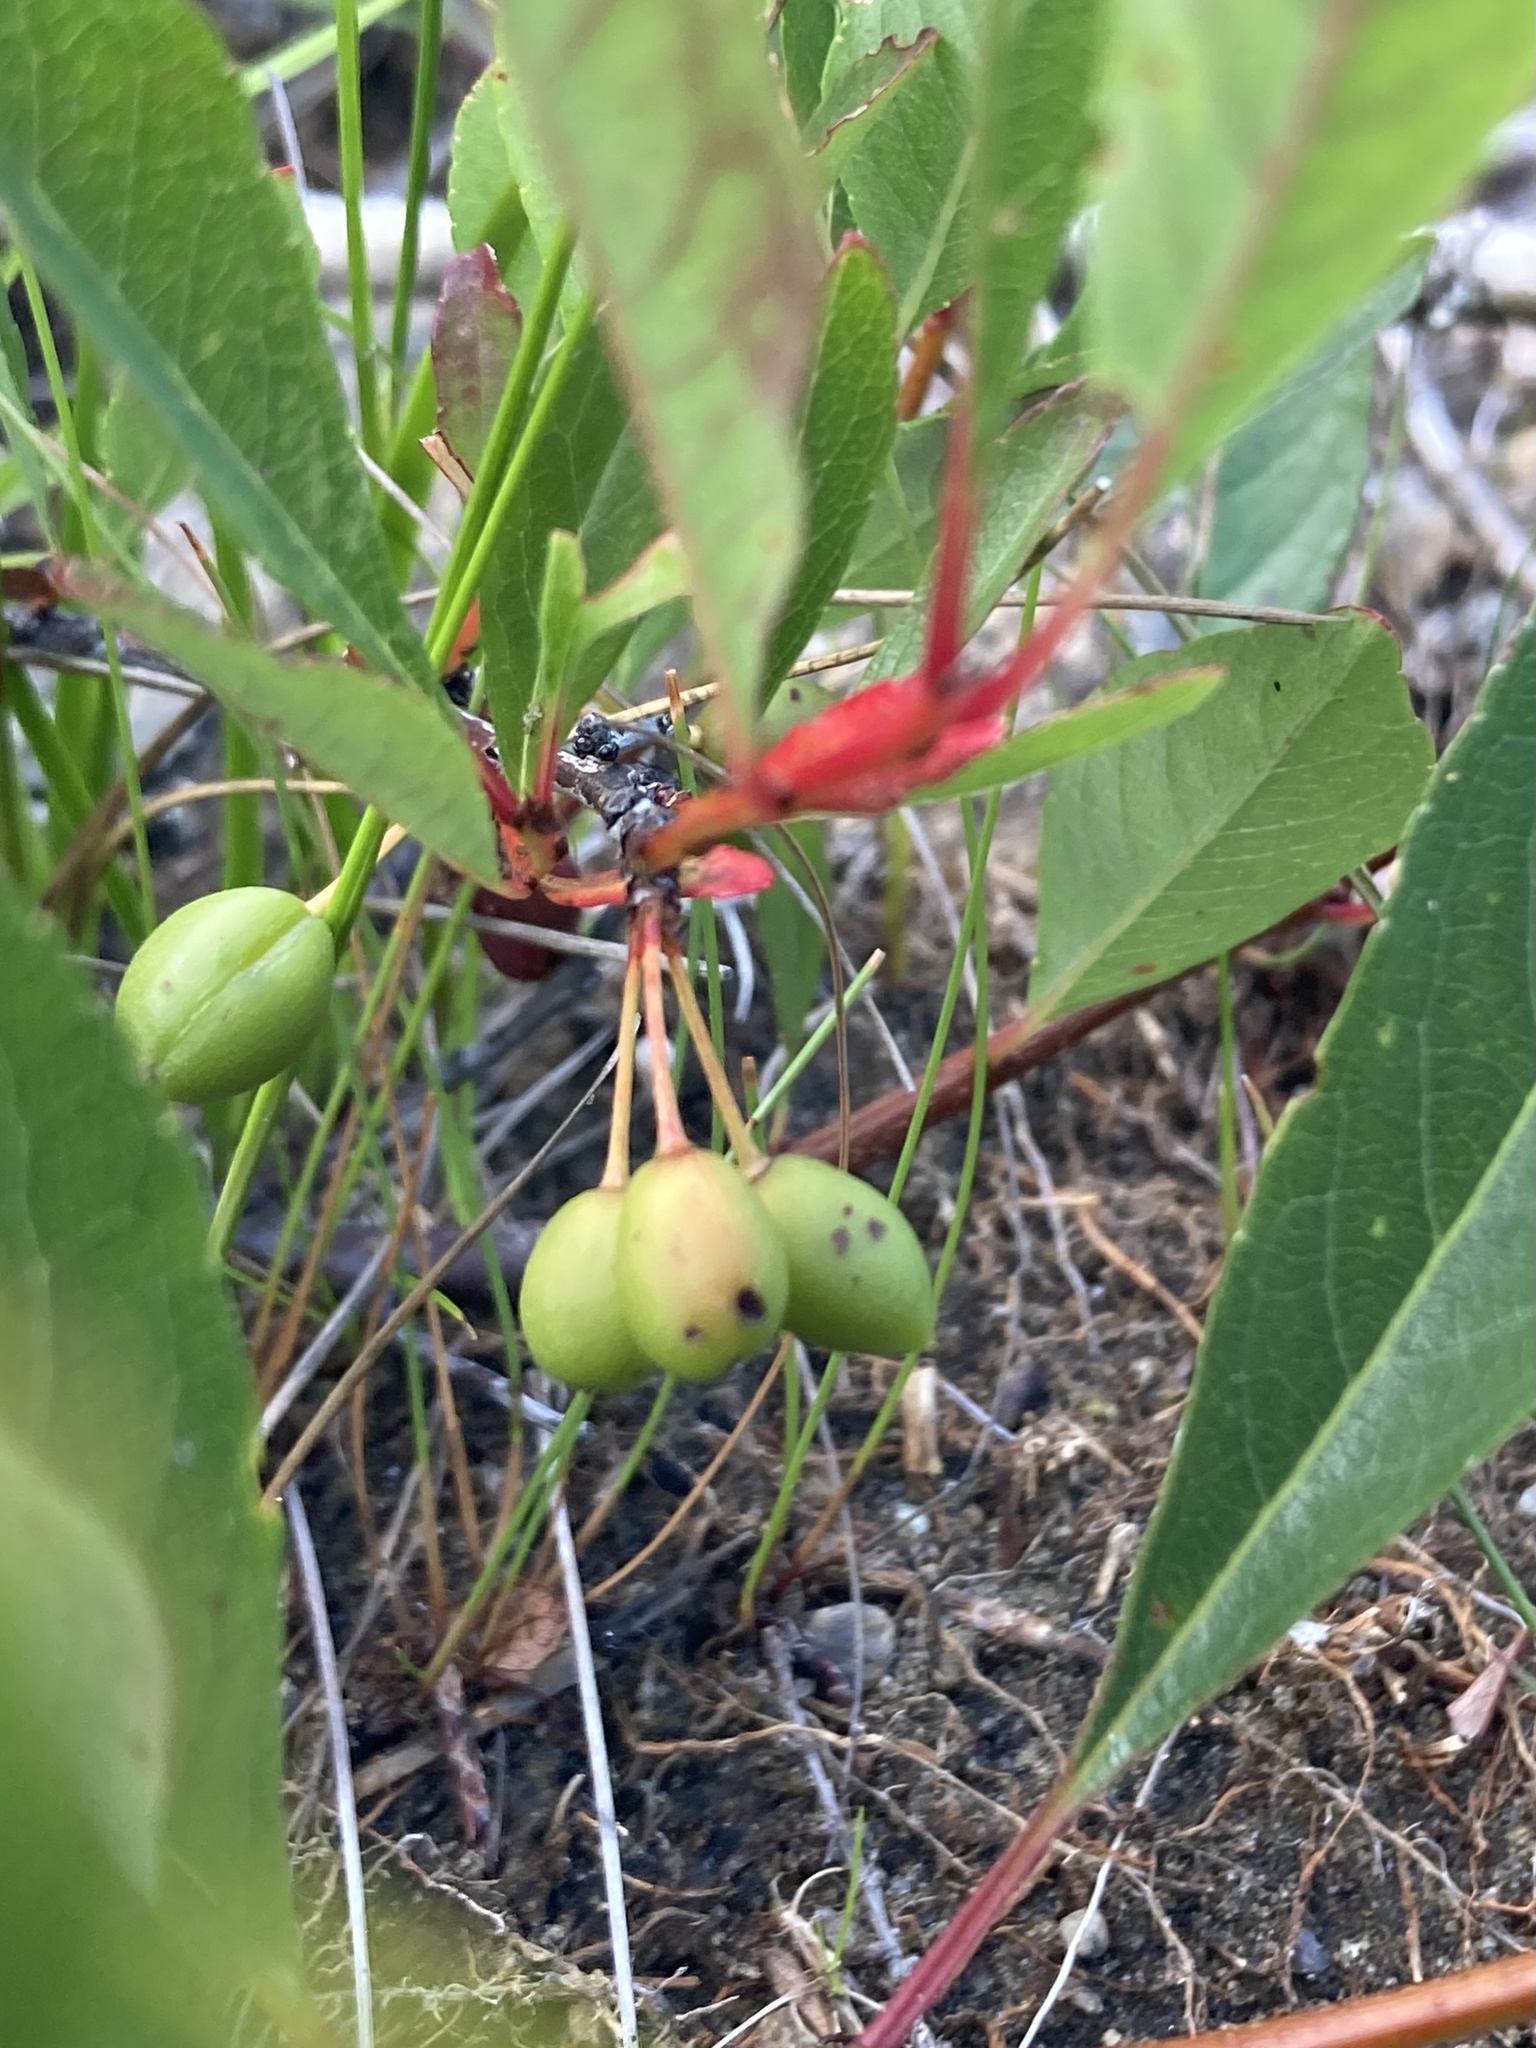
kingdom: Plantae
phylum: Tracheophyta
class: Magnoliopsida
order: Rosales
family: Rosaceae
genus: Prunus
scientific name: Prunus pumila
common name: Dwarf cherry
